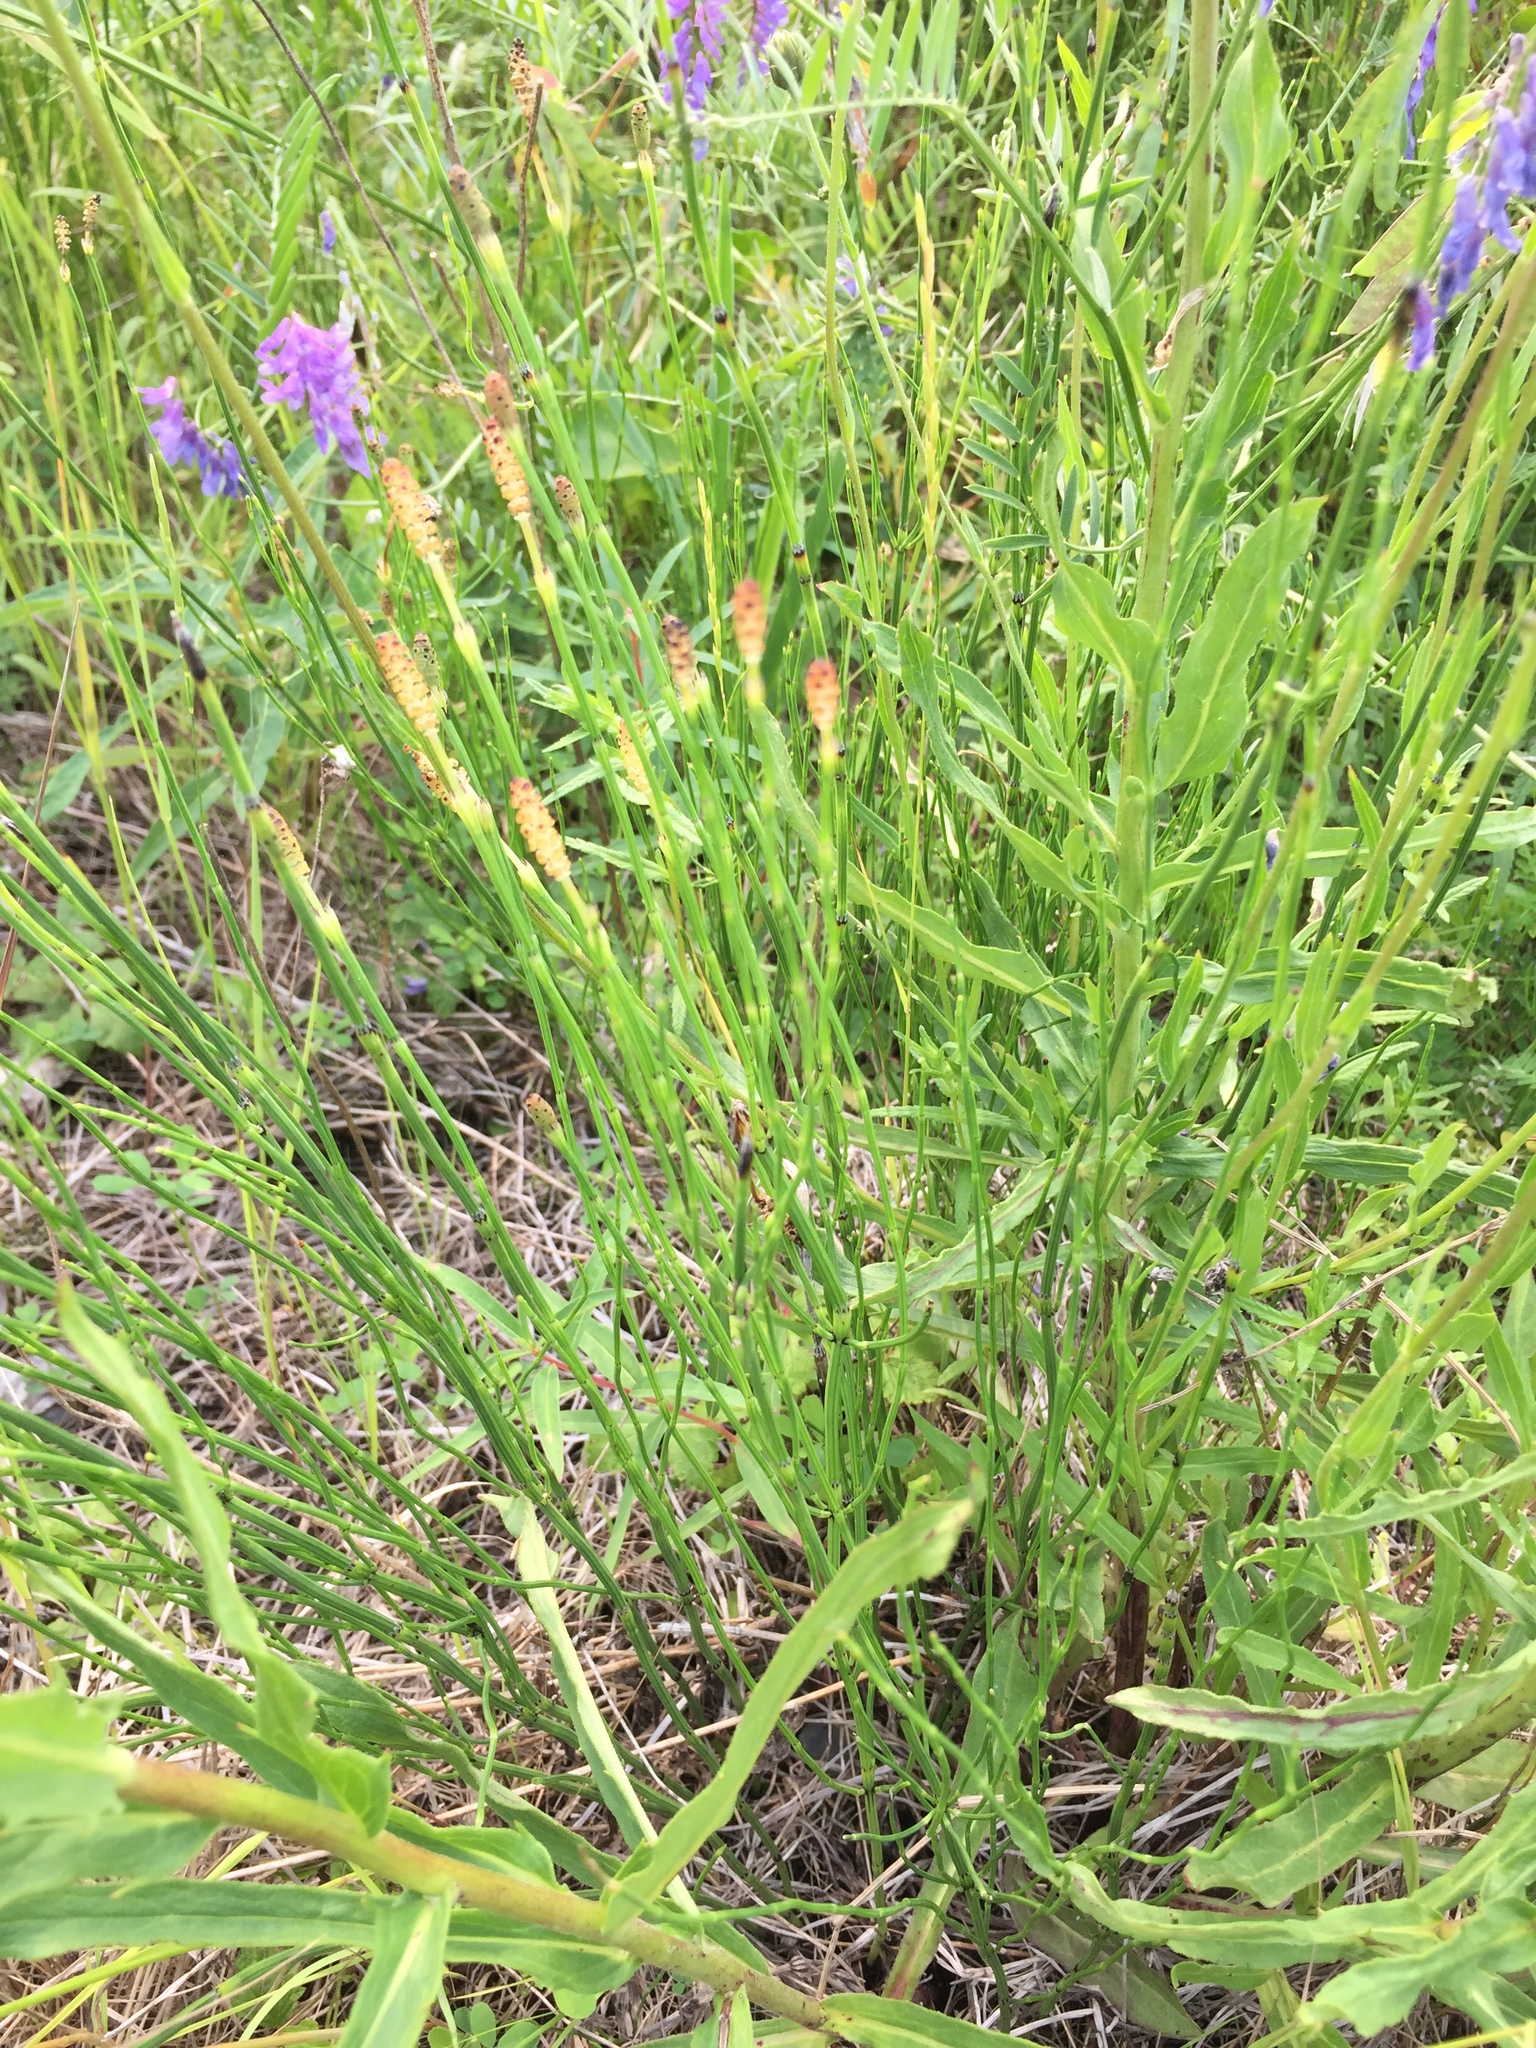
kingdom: Plantae
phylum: Tracheophyta
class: Polypodiopsida
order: Equisetales
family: Equisetaceae
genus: Equisetum
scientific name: Equisetum palustre
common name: Marsh horsetail
